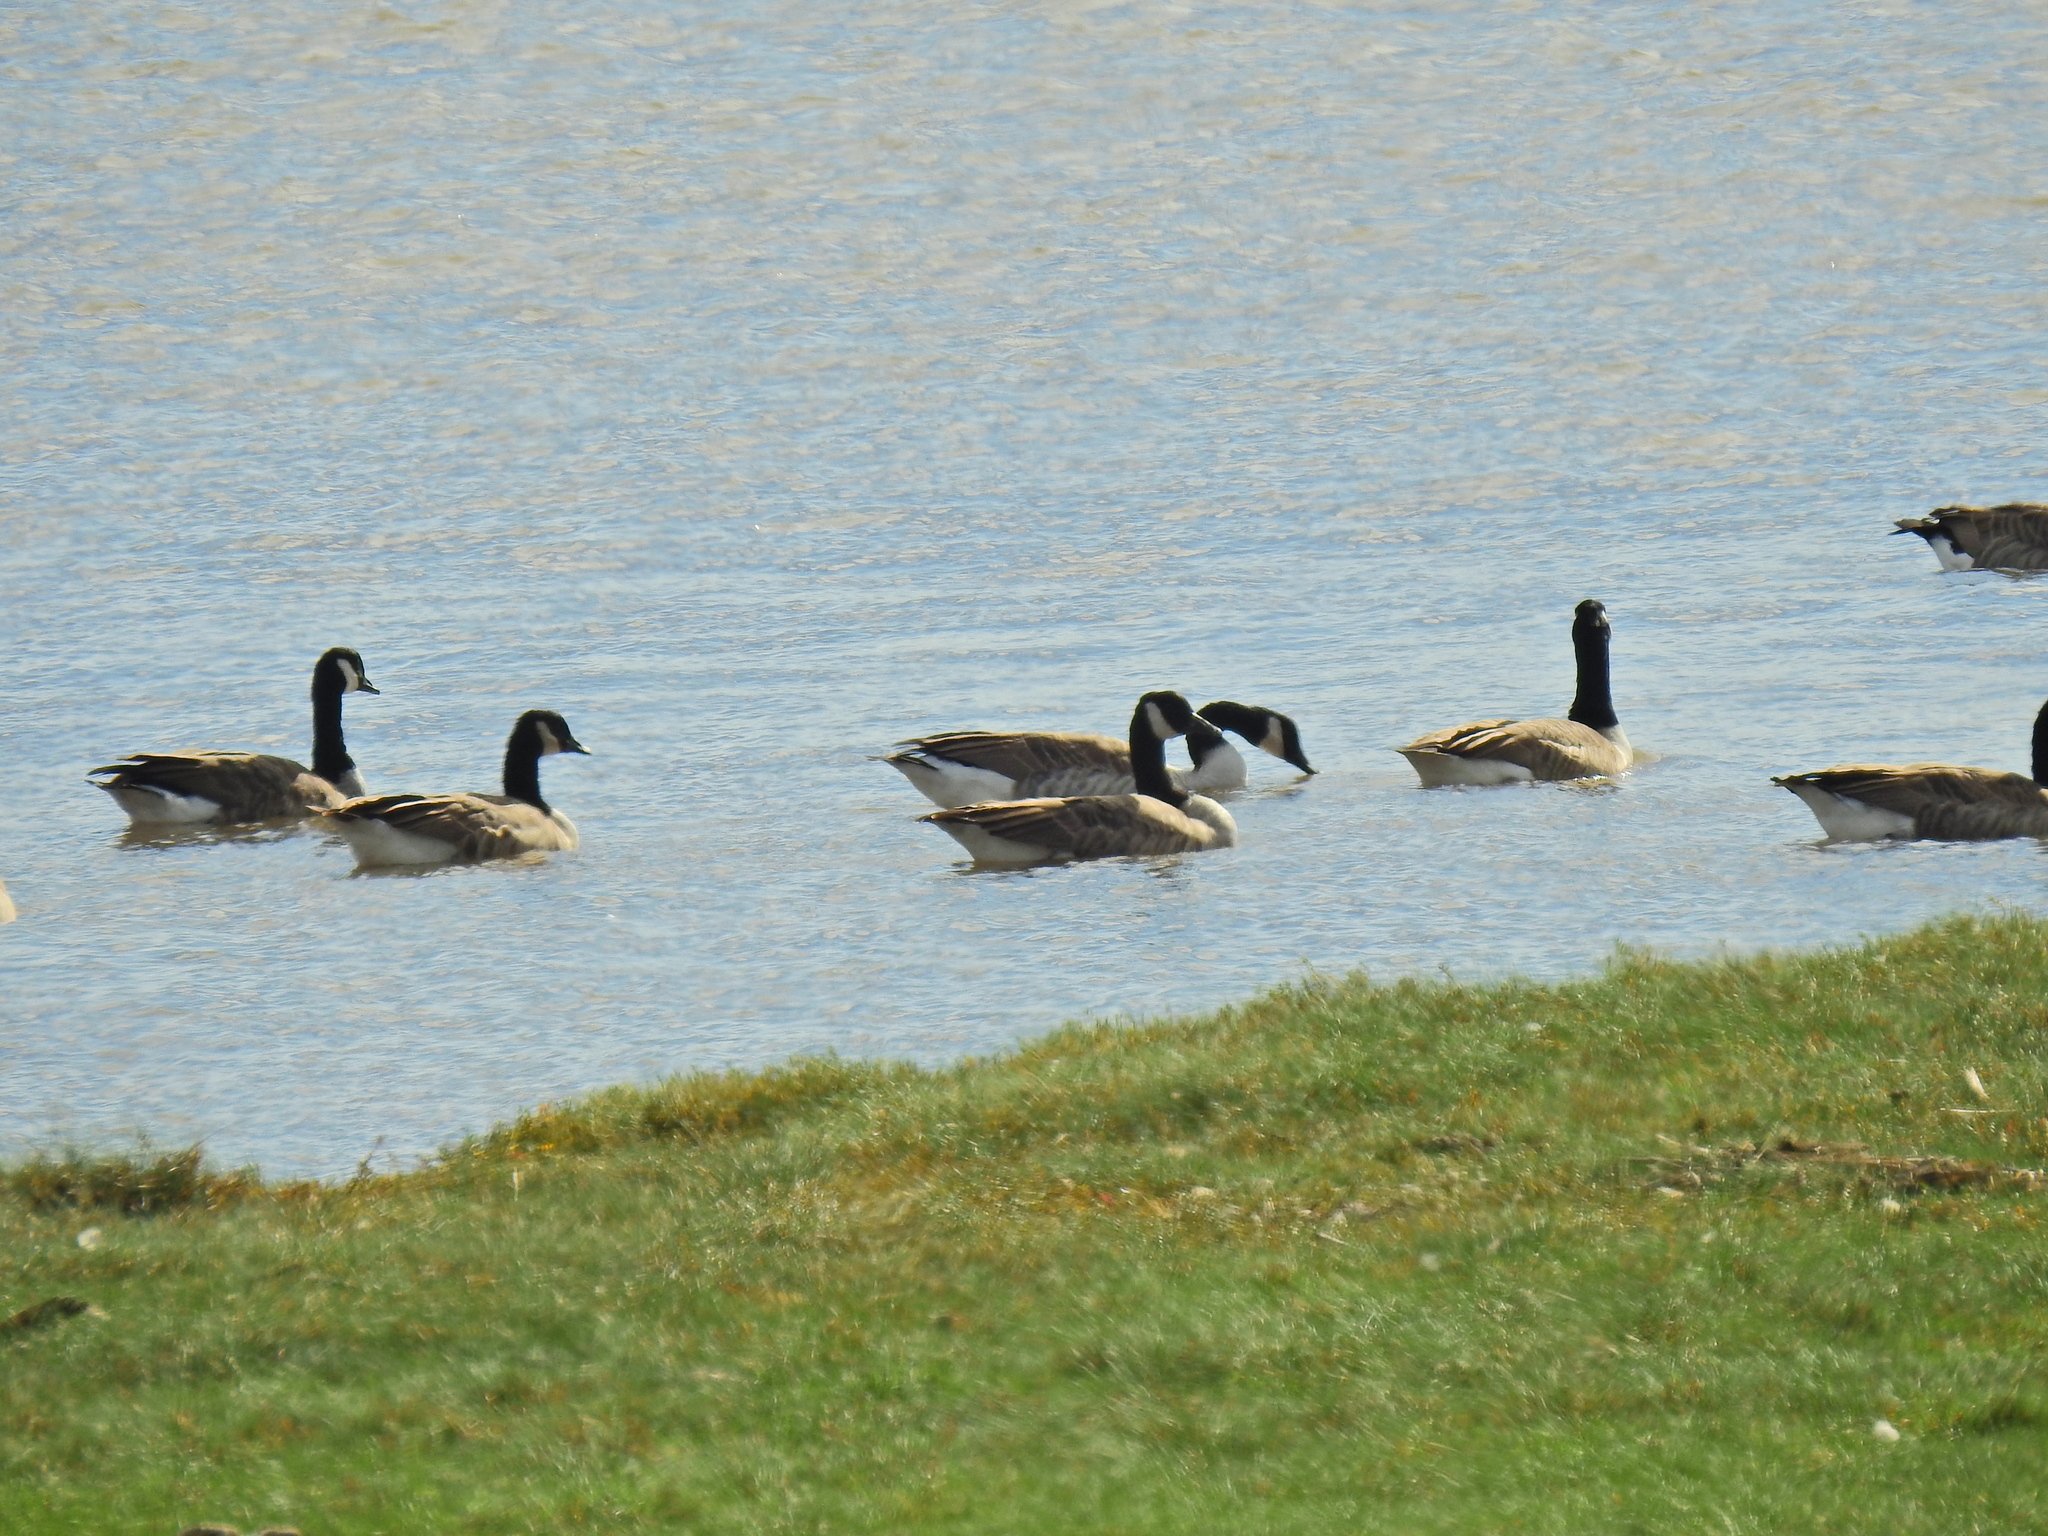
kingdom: Animalia
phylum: Chordata
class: Aves
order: Anseriformes
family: Anatidae
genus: Branta
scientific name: Branta canadensis
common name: Canada goose
